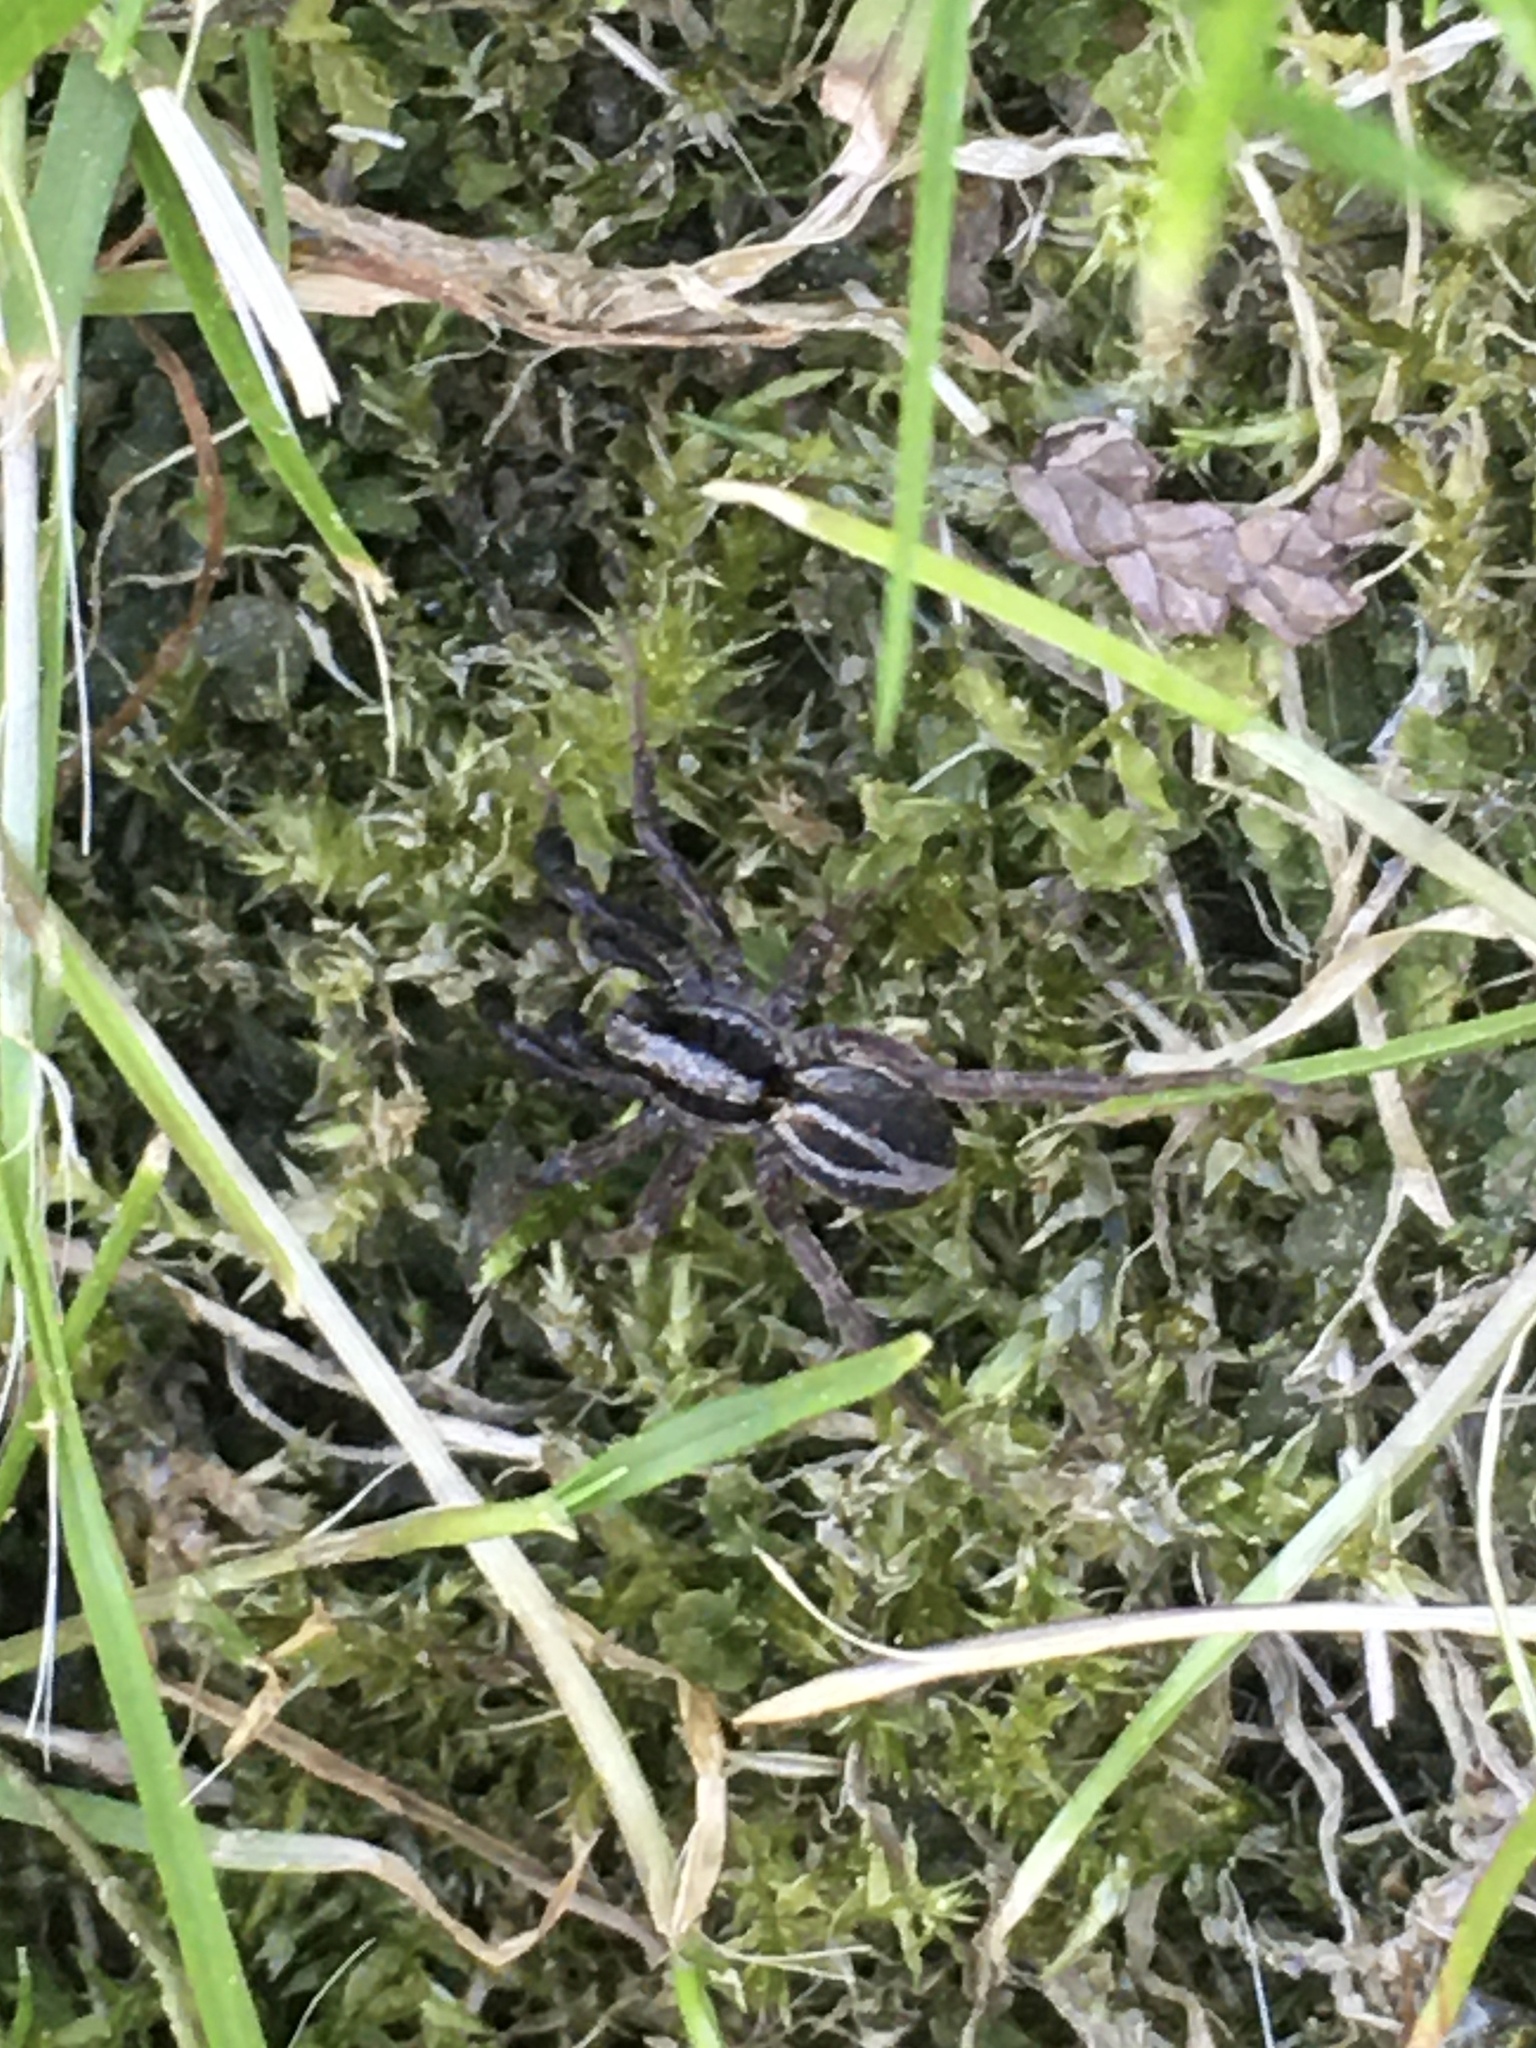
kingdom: Animalia
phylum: Arthropoda
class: Arachnida
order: Araneae
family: Lycosidae
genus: Alopecosa
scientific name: Alopecosa cuneata
